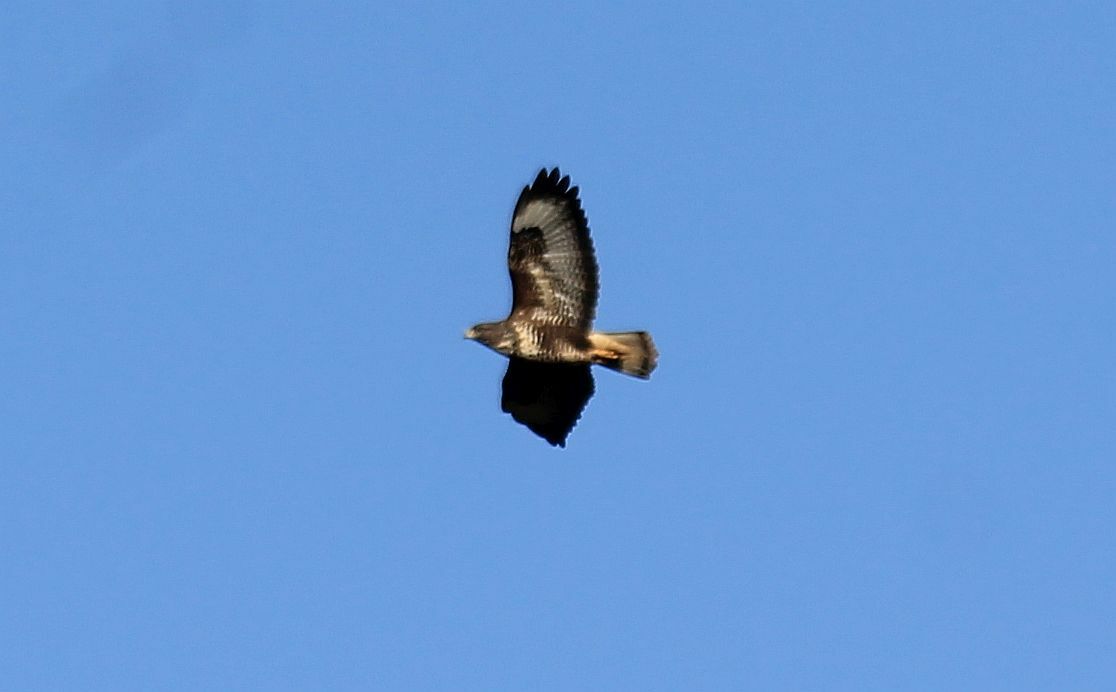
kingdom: Animalia
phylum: Chordata
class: Aves
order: Accipitriformes
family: Accipitridae
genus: Buteo
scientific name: Buteo buteo
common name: Common buzzard
